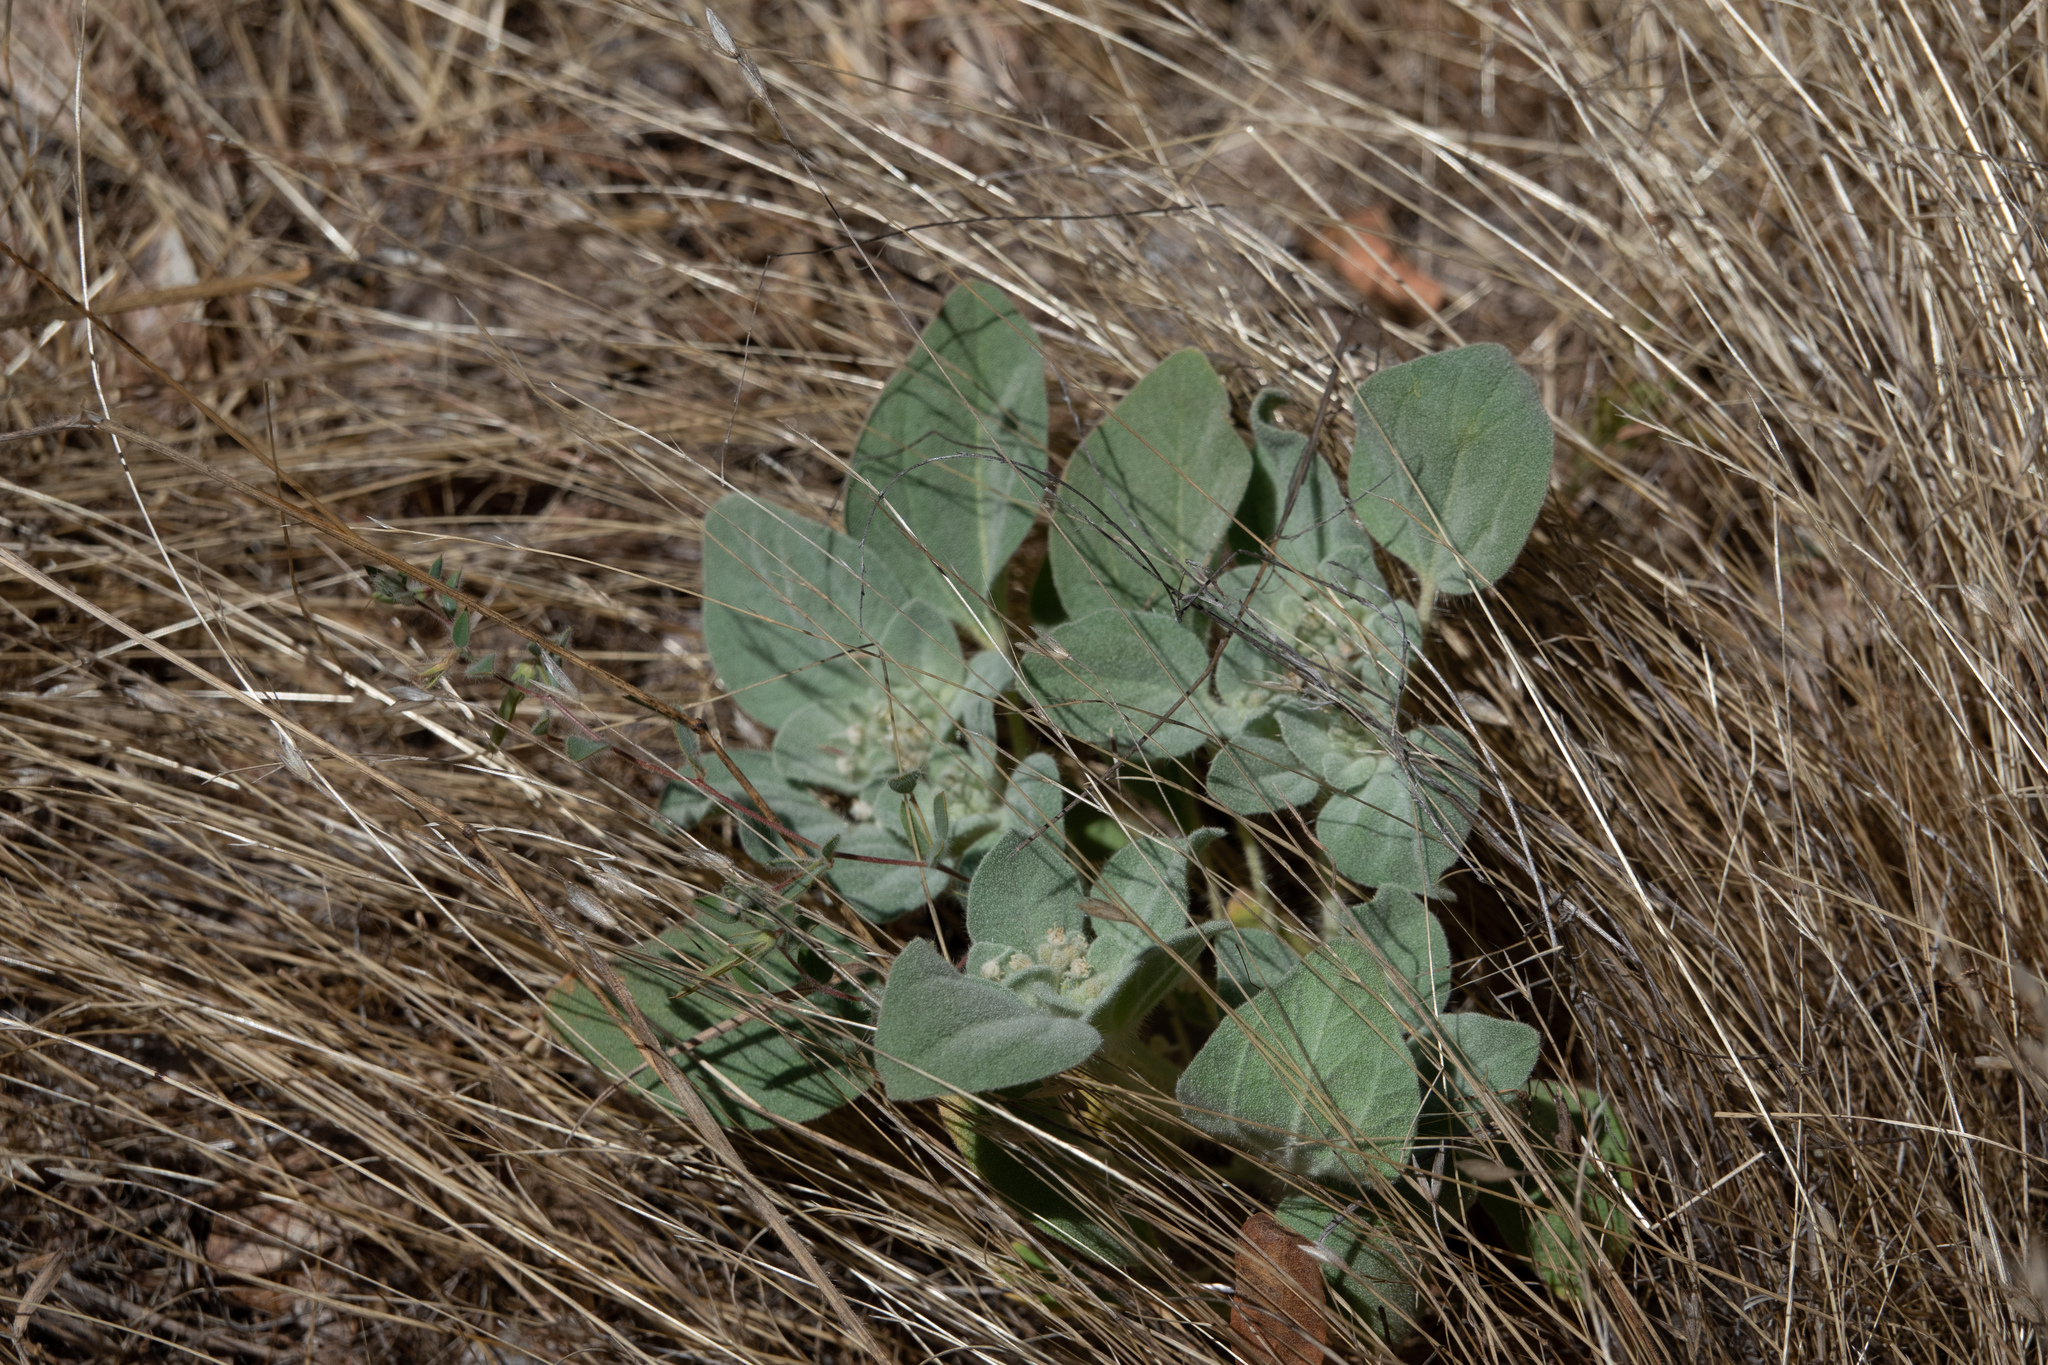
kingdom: Plantae
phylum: Tracheophyta
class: Magnoliopsida
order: Malpighiales
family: Euphorbiaceae
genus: Croton
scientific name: Croton setiger
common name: Dove weed
